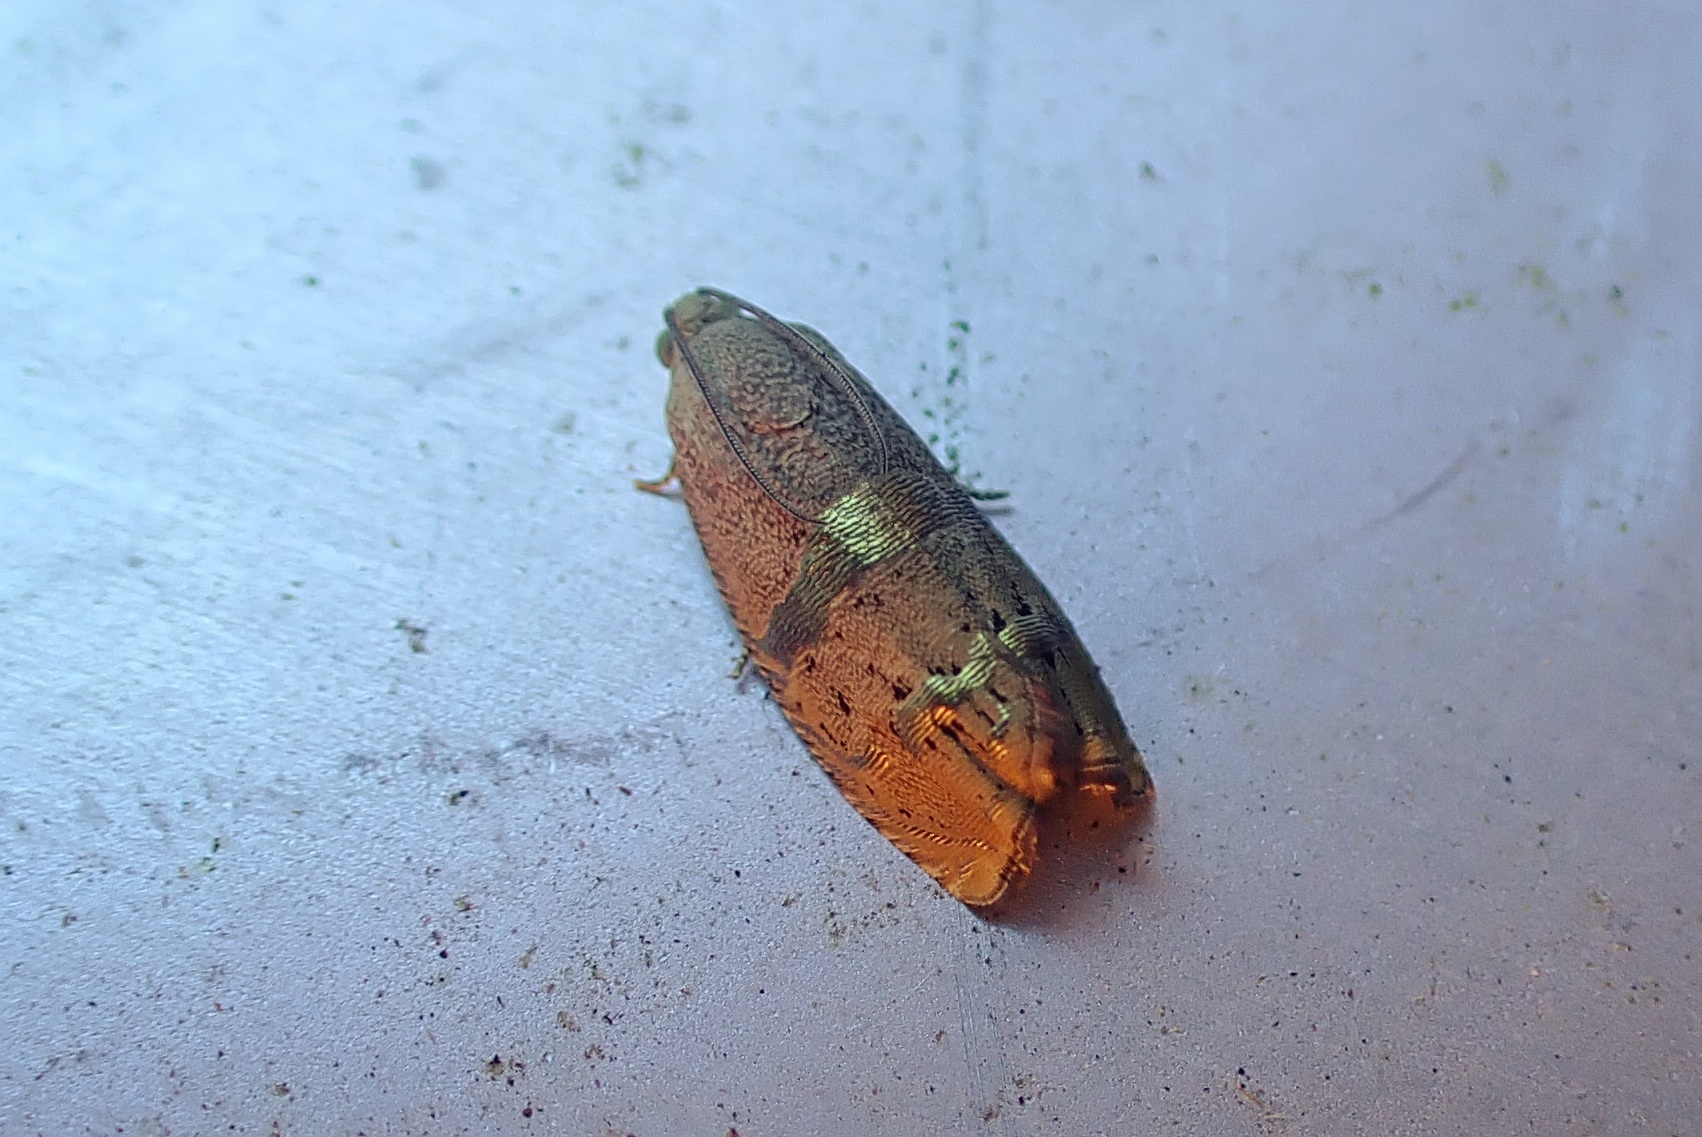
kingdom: Animalia
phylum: Arthropoda
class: Insecta
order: Lepidoptera
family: Tortricidae
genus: Cydia
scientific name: Cydia latiferreana
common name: Filbertworm moth
